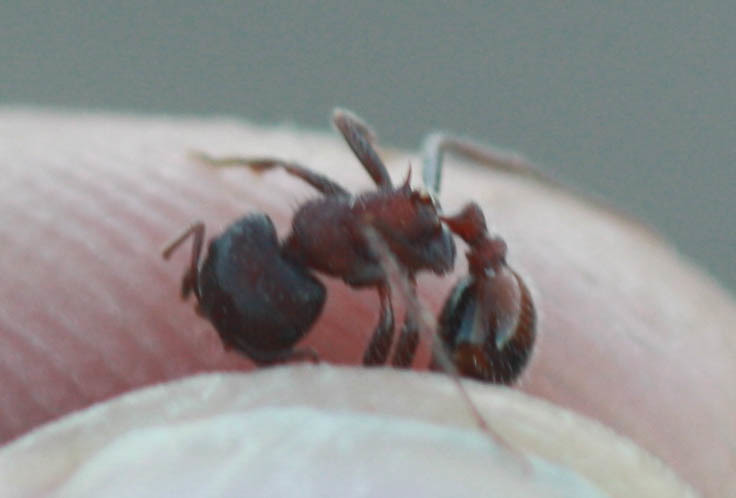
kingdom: Animalia
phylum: Arthropoda
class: Insecta
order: Hymenoptera
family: Formicidae
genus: Pogonomyrmex
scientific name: Pogonomyrmex rugosus
